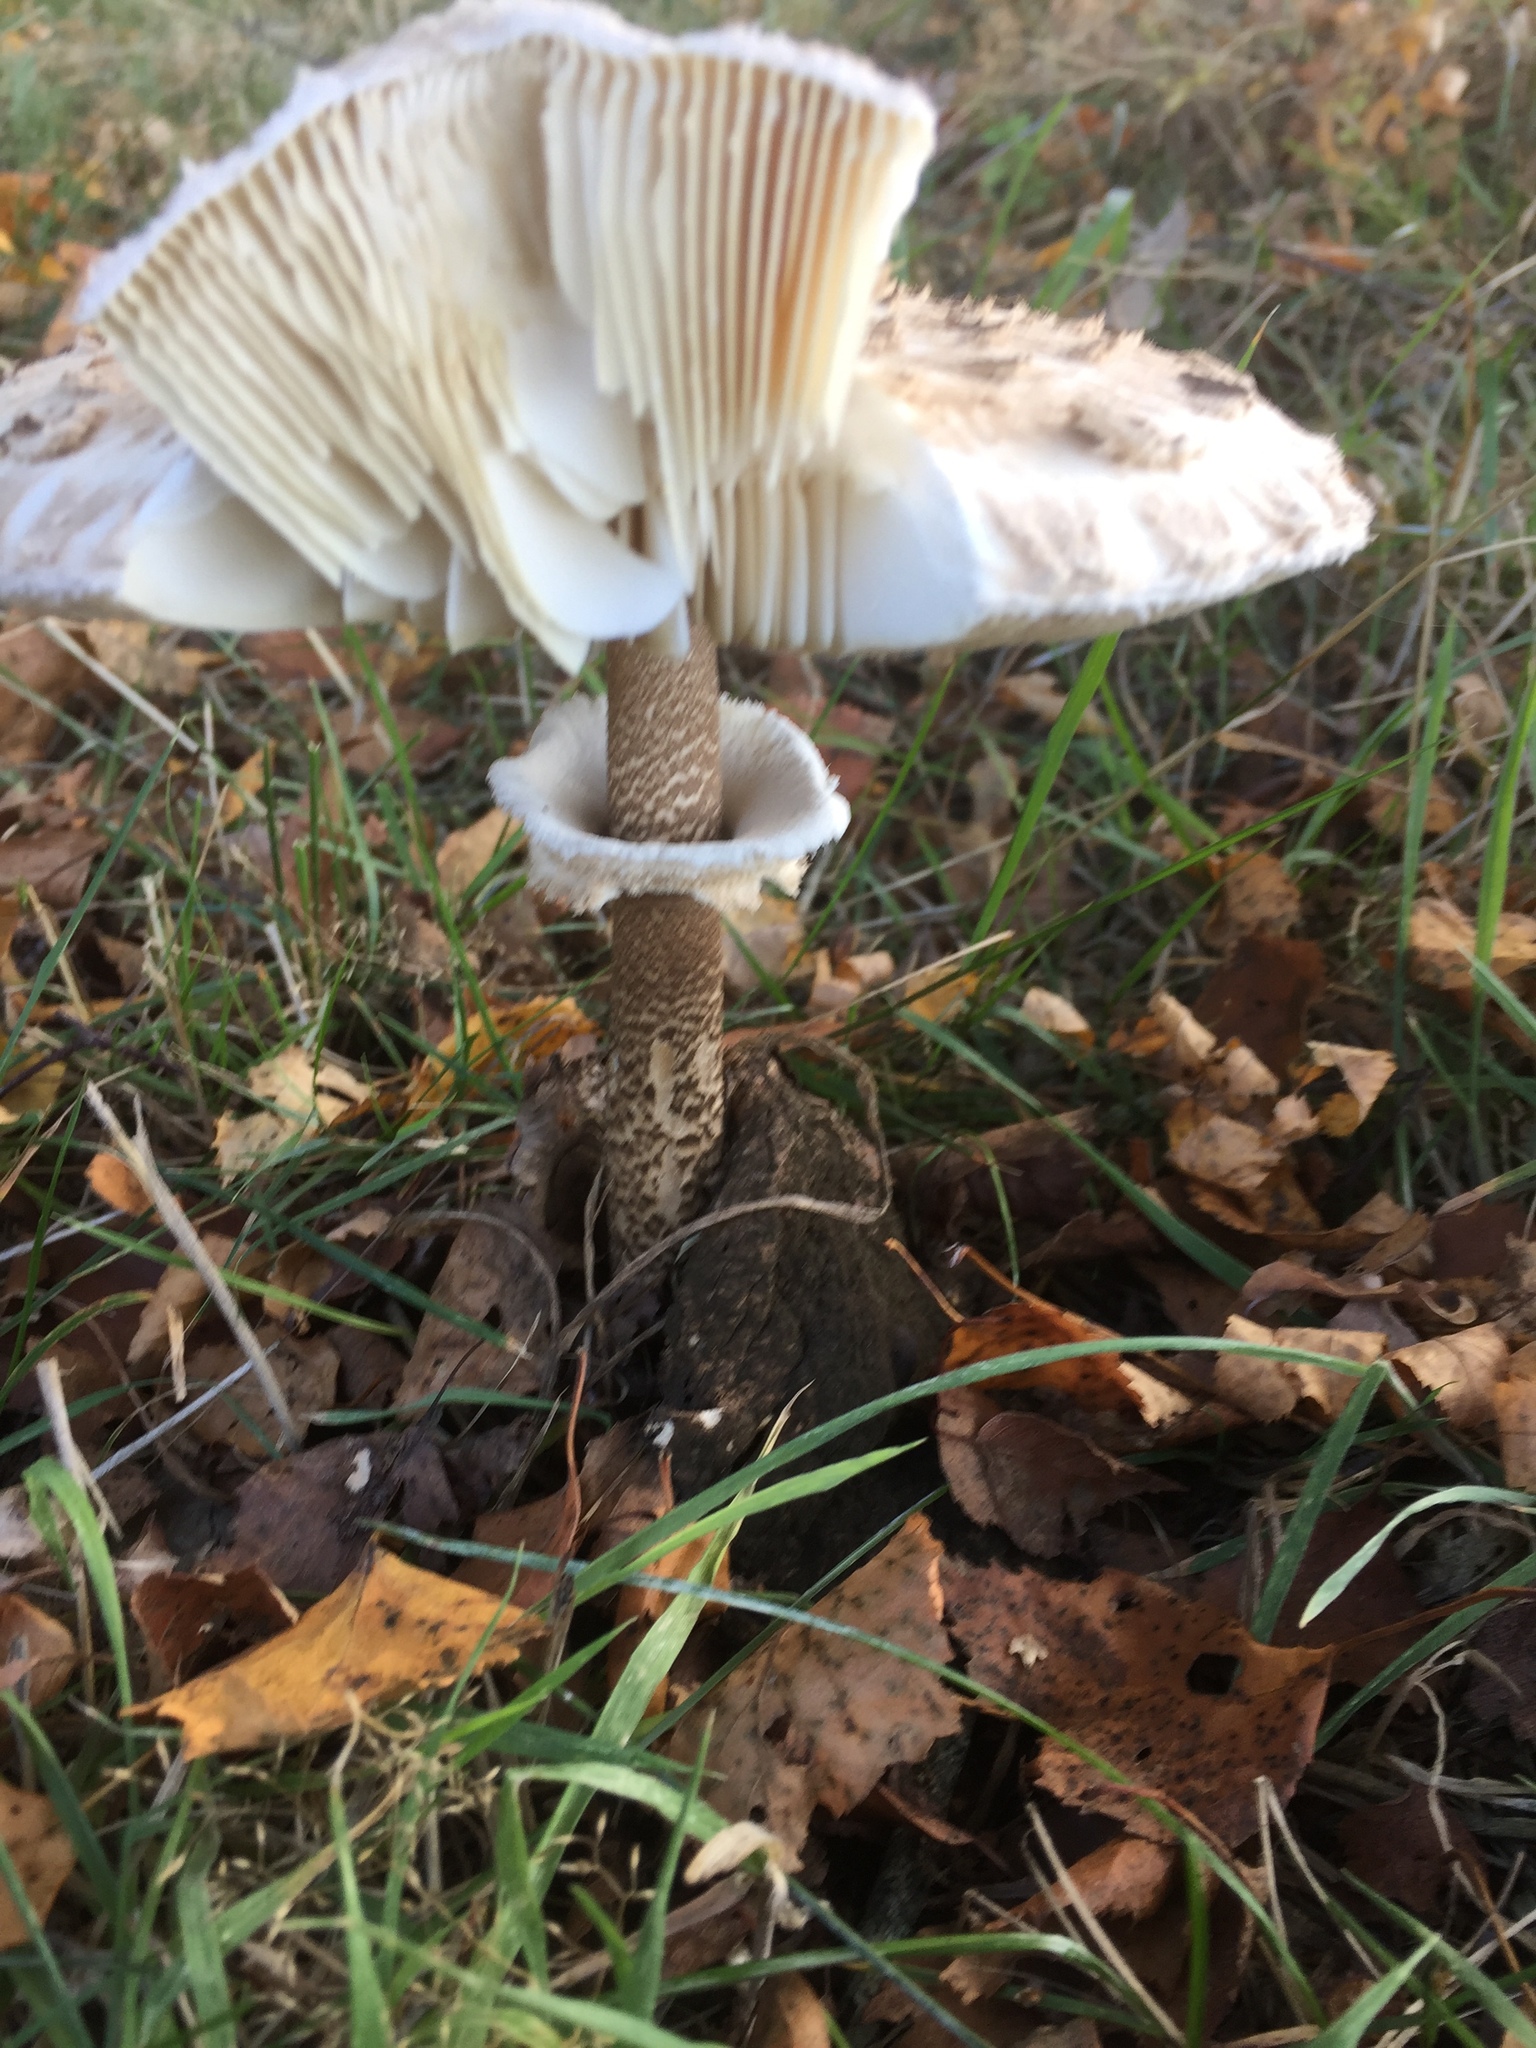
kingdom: Fungi
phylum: Basidiomycota
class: Agaricomycetes
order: Agaricales
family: Agaricaceae
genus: Macrolepiota
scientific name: Macrolepiota procera
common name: Parasol
